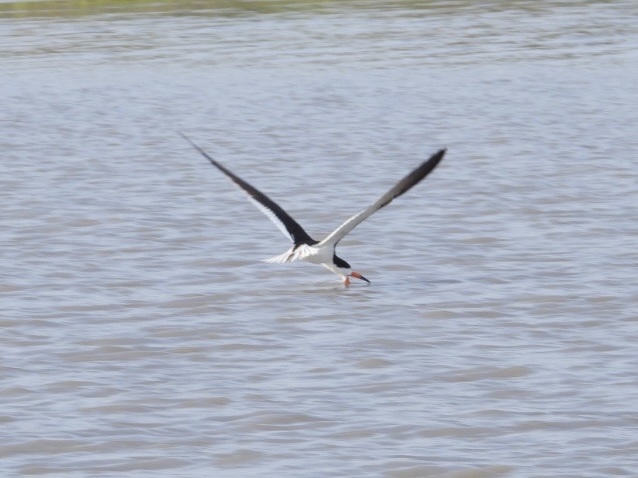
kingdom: Animalia
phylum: Chordata
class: Aves
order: Charadriiformes
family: Laridae
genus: Rynchops
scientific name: Rynchops niger
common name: Black skimmer
